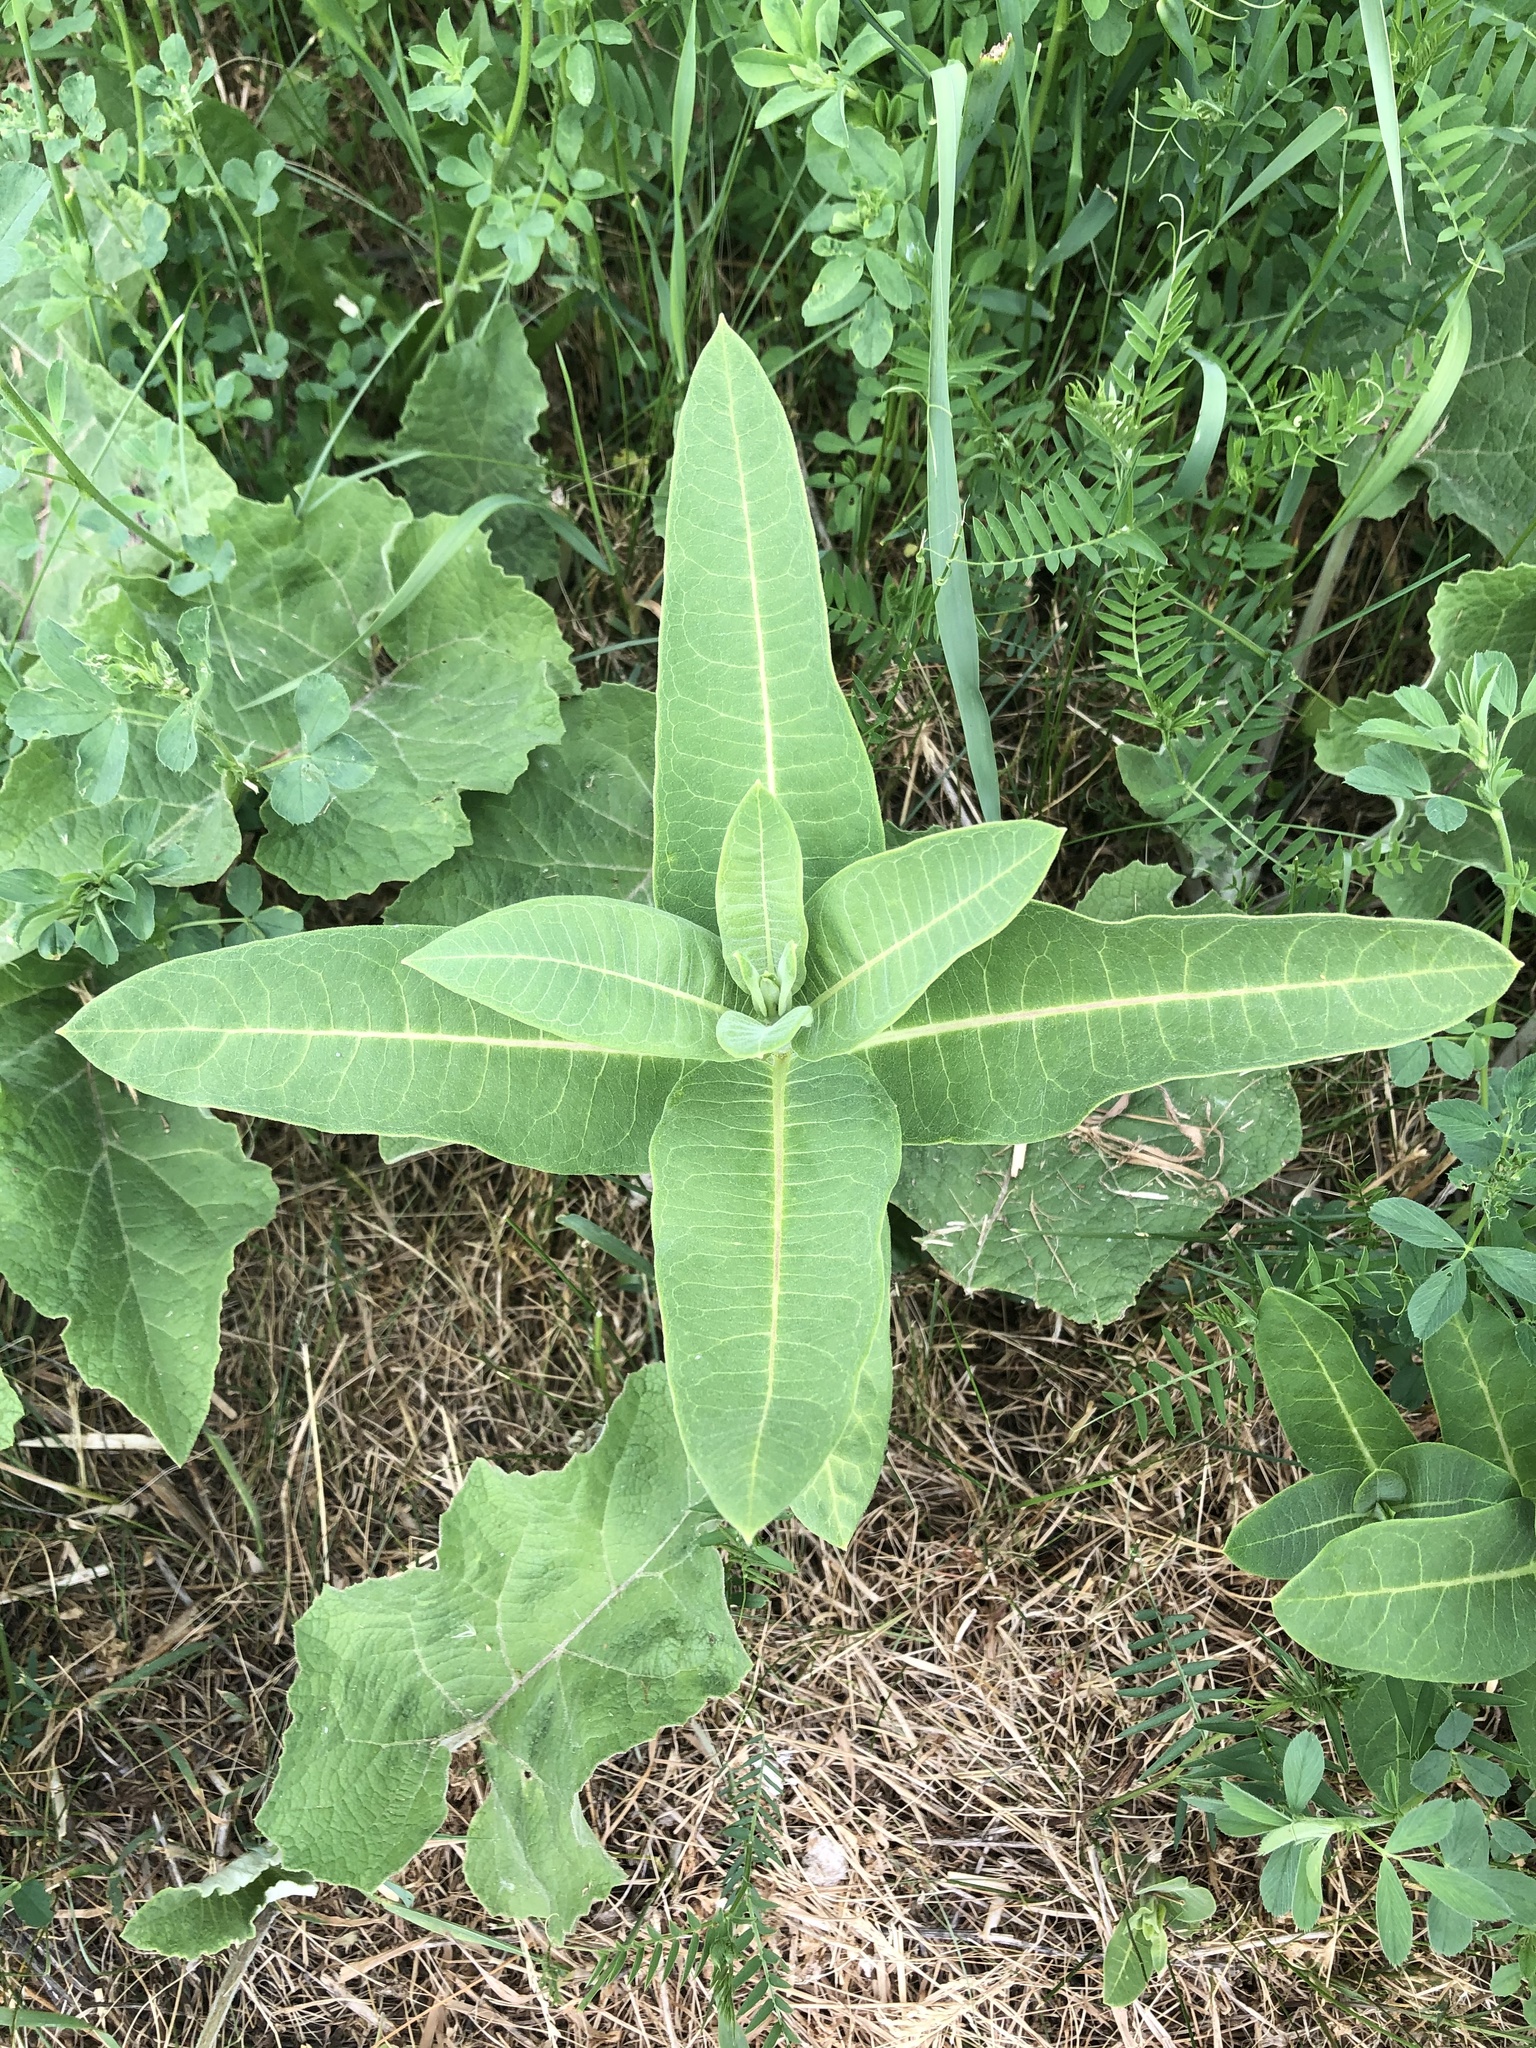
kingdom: Plantae
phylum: Tracheophyta
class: Magnoliopsida
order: Gentianales
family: Apocynaceae
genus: Asclepias
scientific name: Asclepias syriaca
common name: Common milkweed
